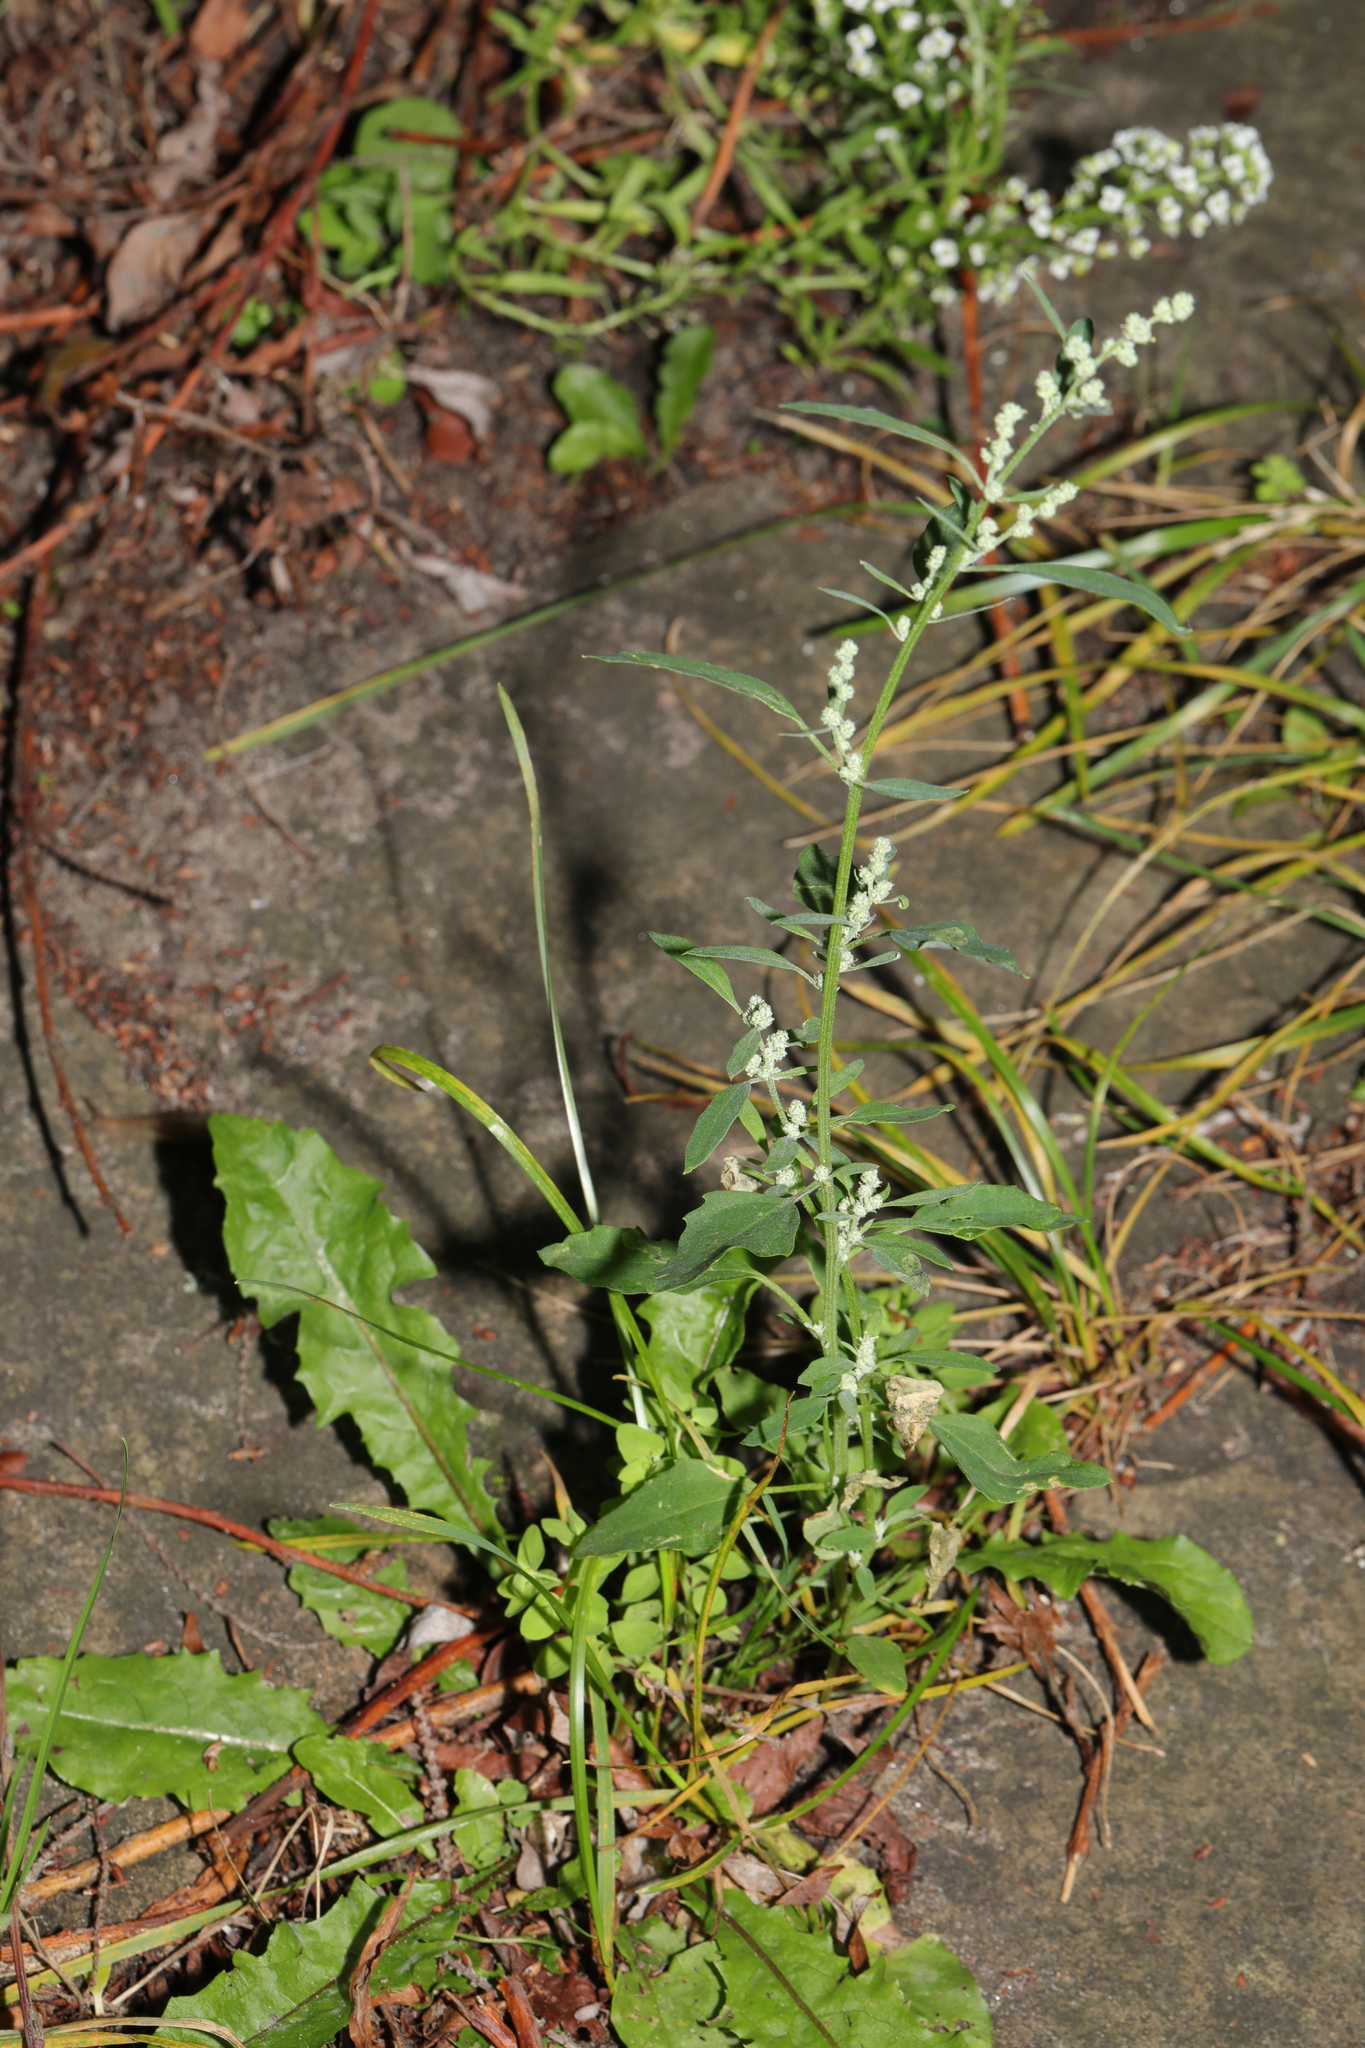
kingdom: Plantae
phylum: Tracheophyta
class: Magnoliopsida
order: Caryophyllales
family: Amaranthaceae
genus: Chenopodium
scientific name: Chenopodium album
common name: Fat-hen
